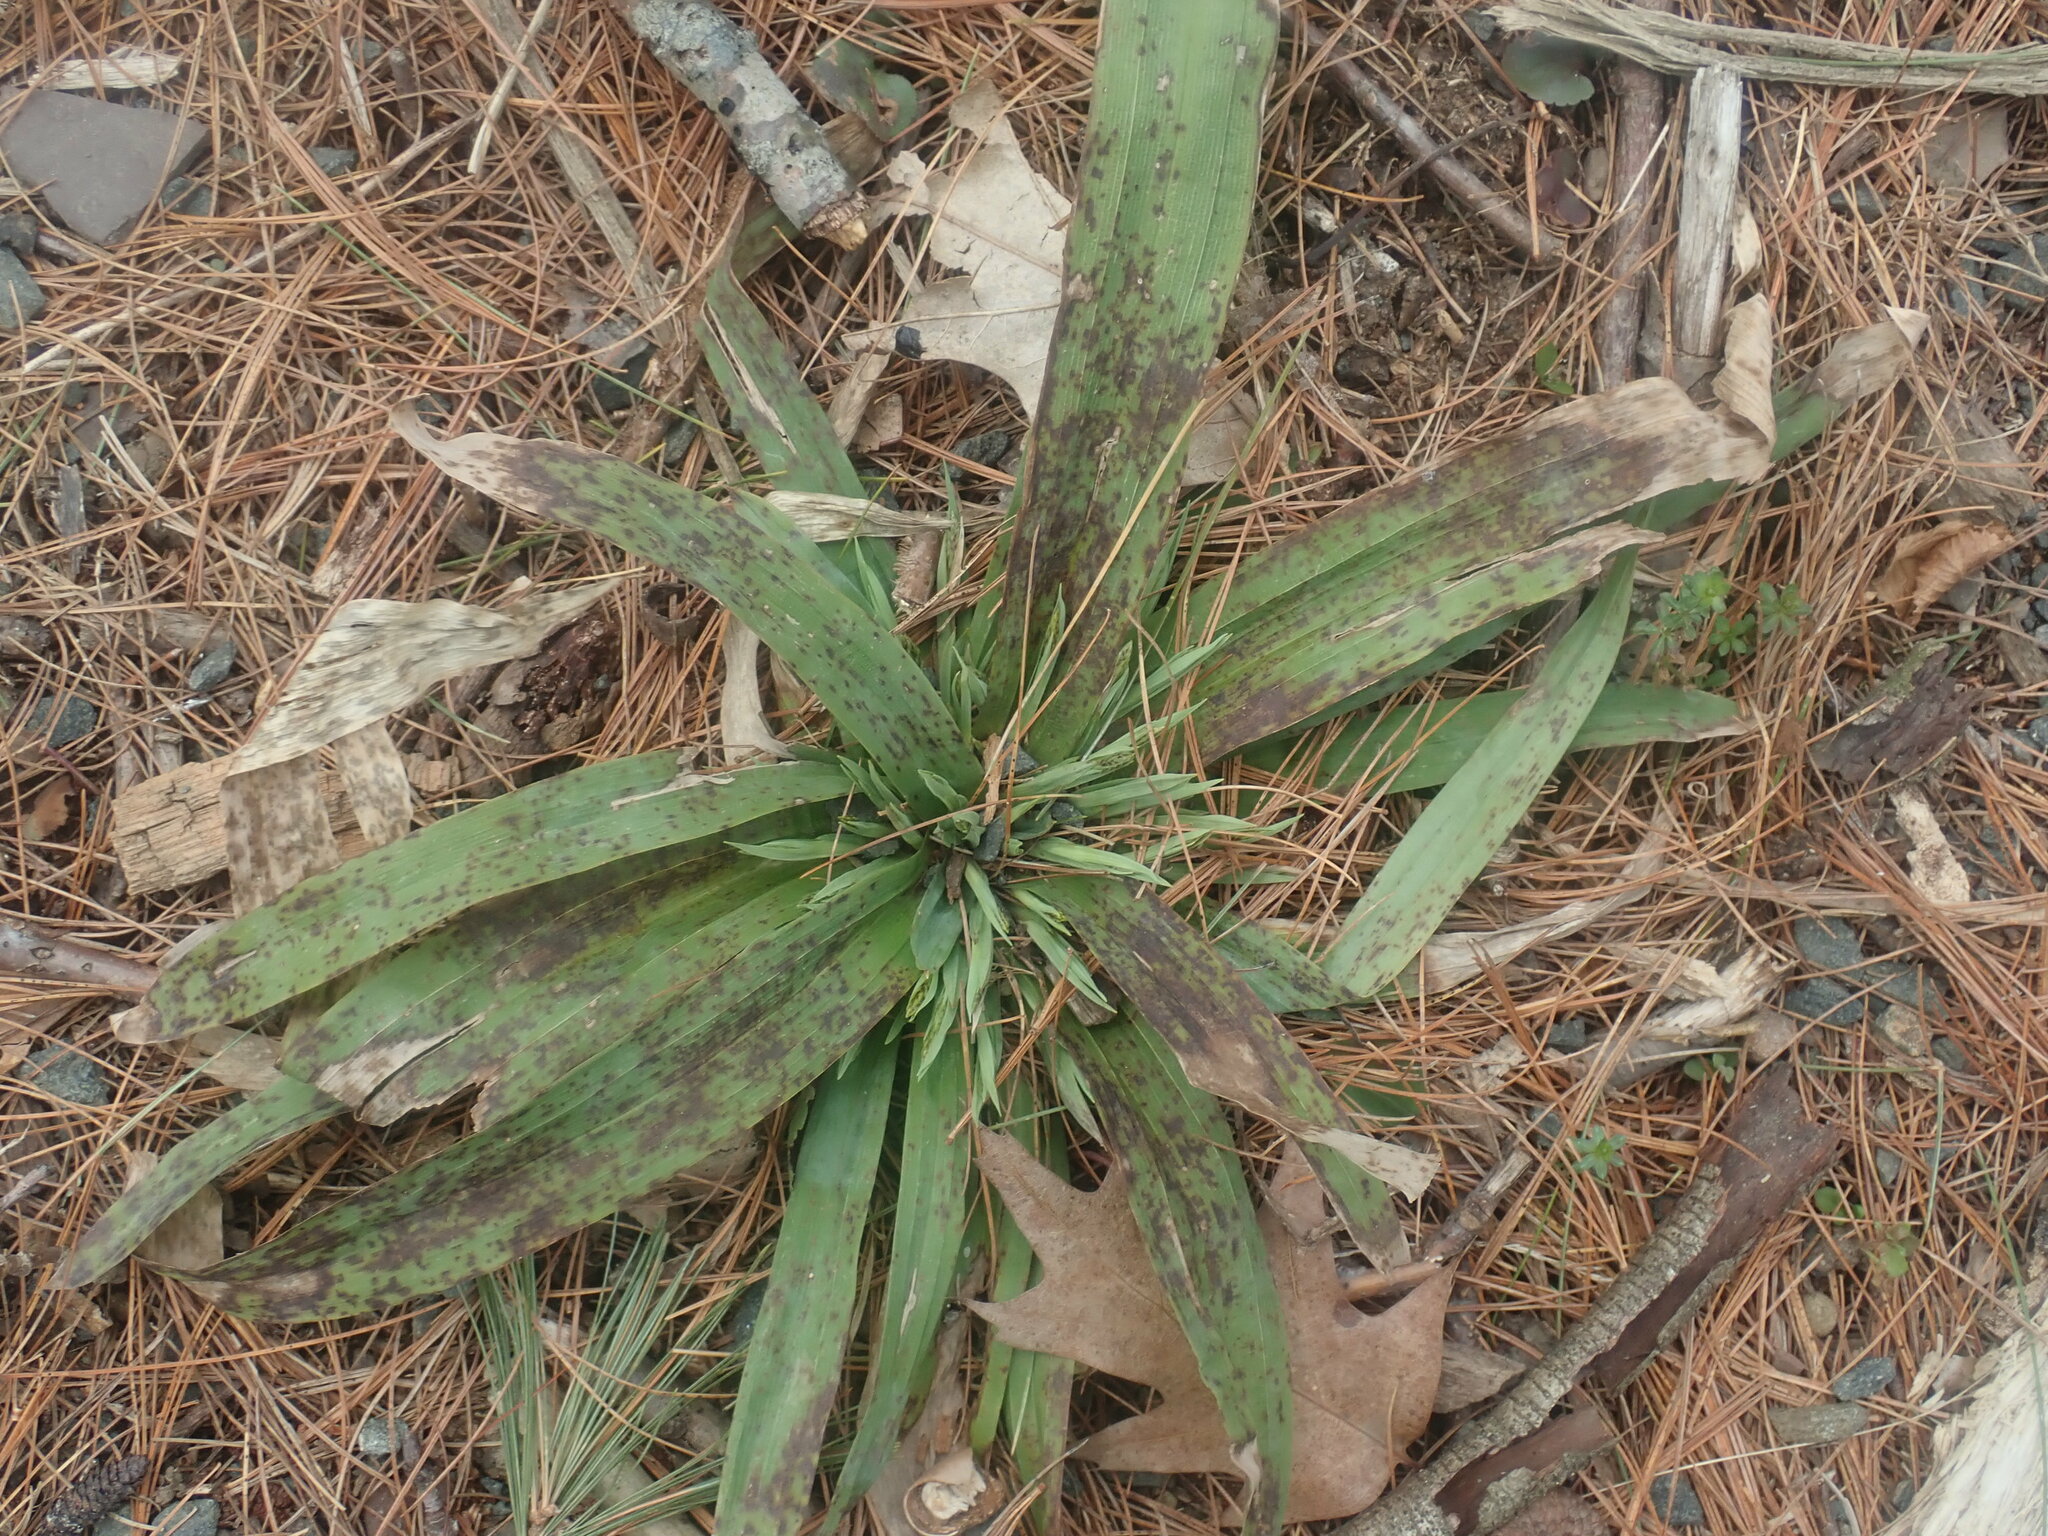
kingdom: Plantae
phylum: Tracheophyta
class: Liliopsida
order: Poales
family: Cyperaceae
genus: Carex
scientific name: Carex platyphylla
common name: Broad-leaved sedge
